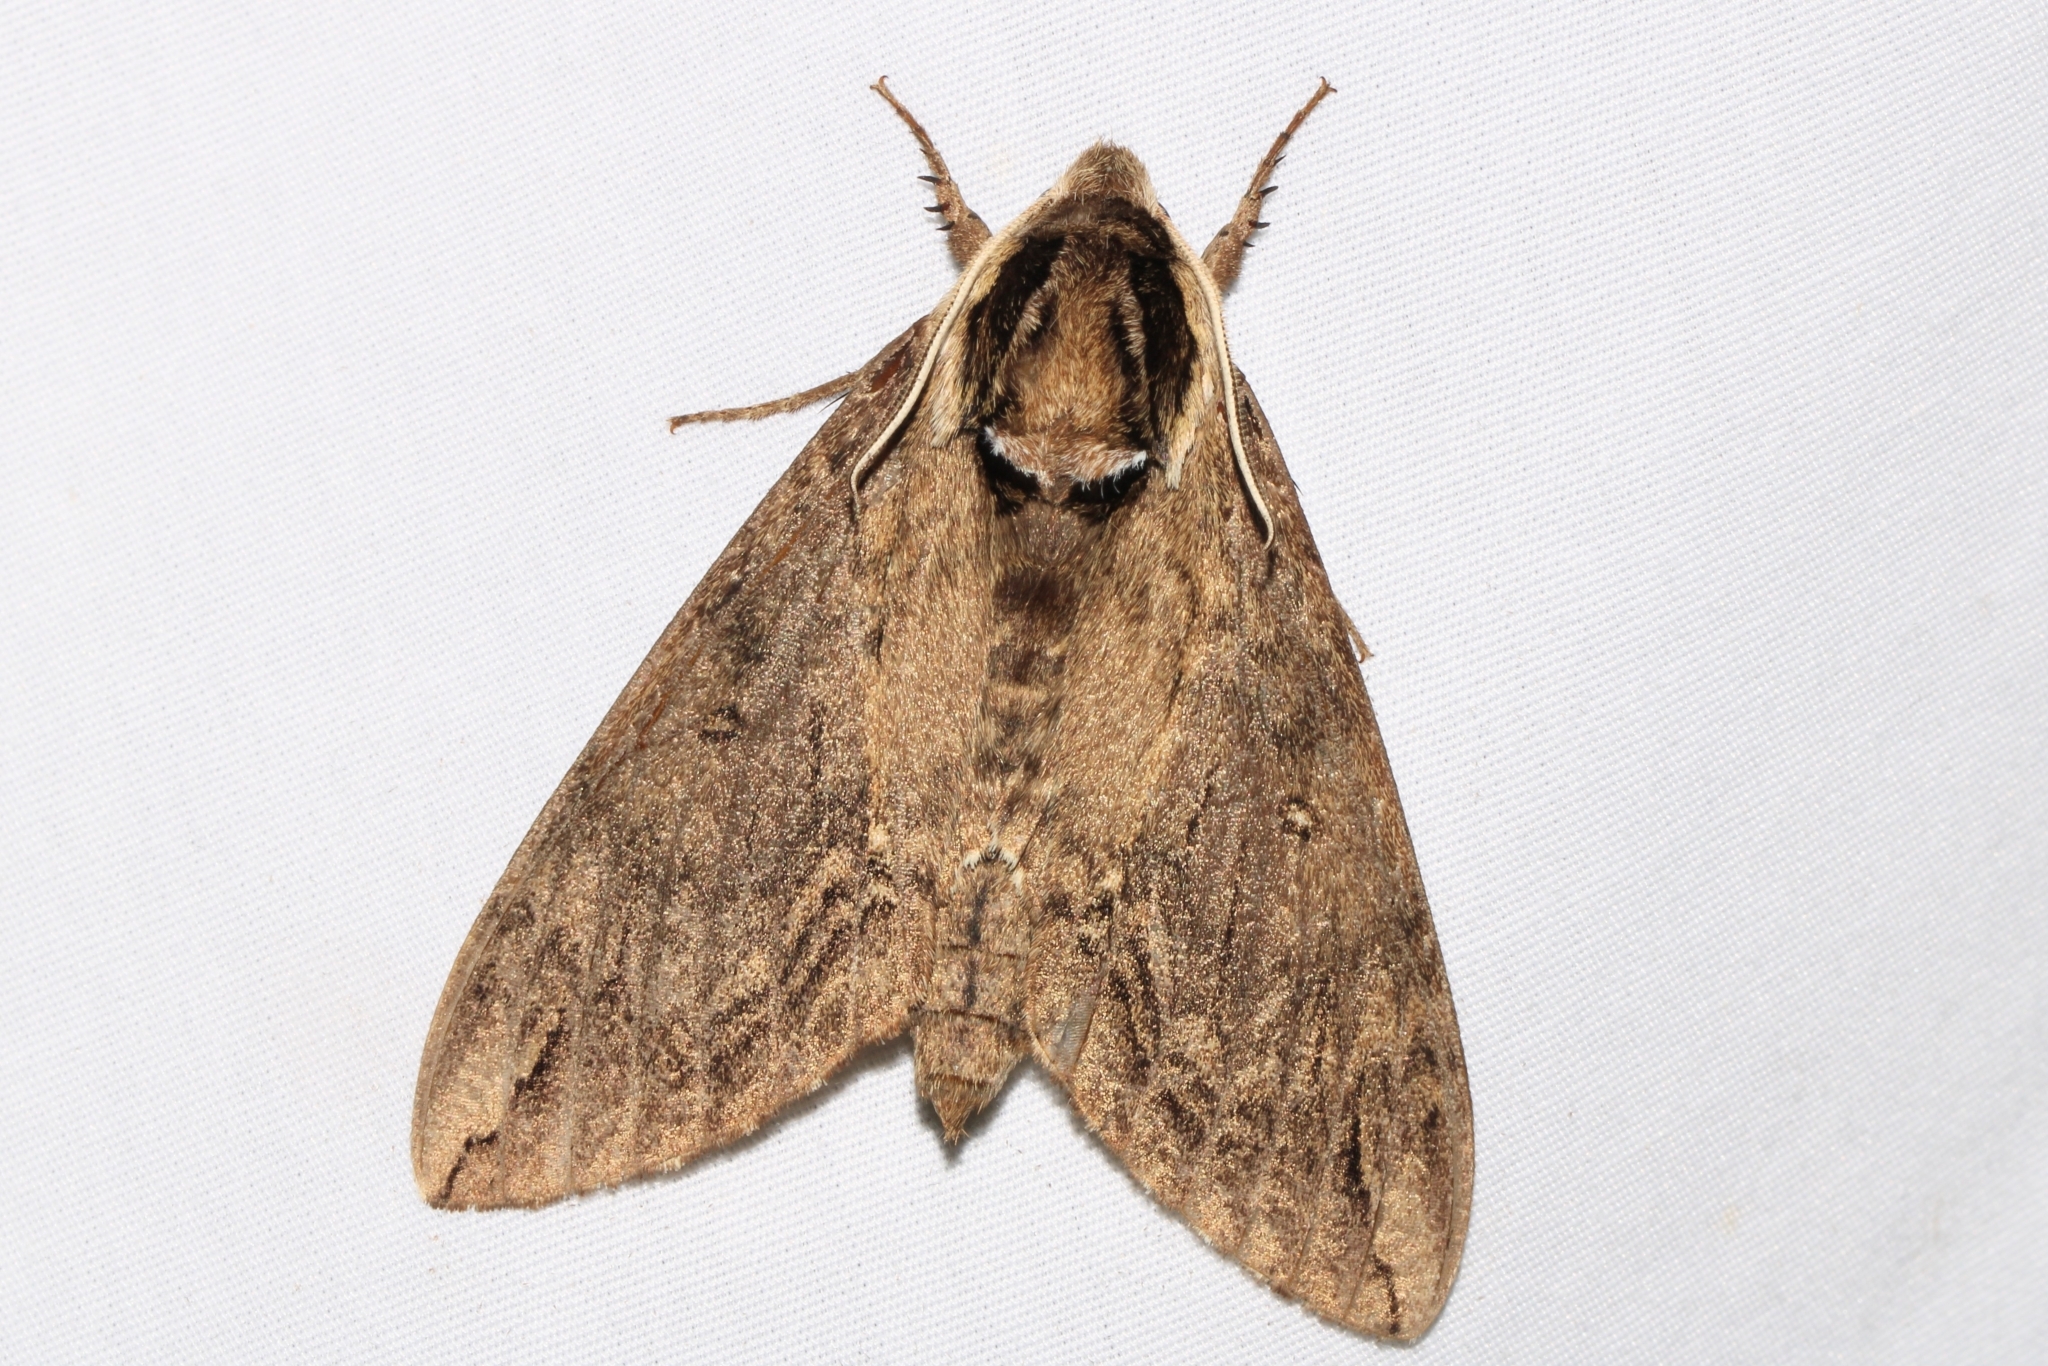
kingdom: Animalia
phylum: Arthropoda
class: Insecta
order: Lepidoptera
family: Sphingidae
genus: Ceratomia
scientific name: Ceratomia catalpae
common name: Catalpa hornworm
